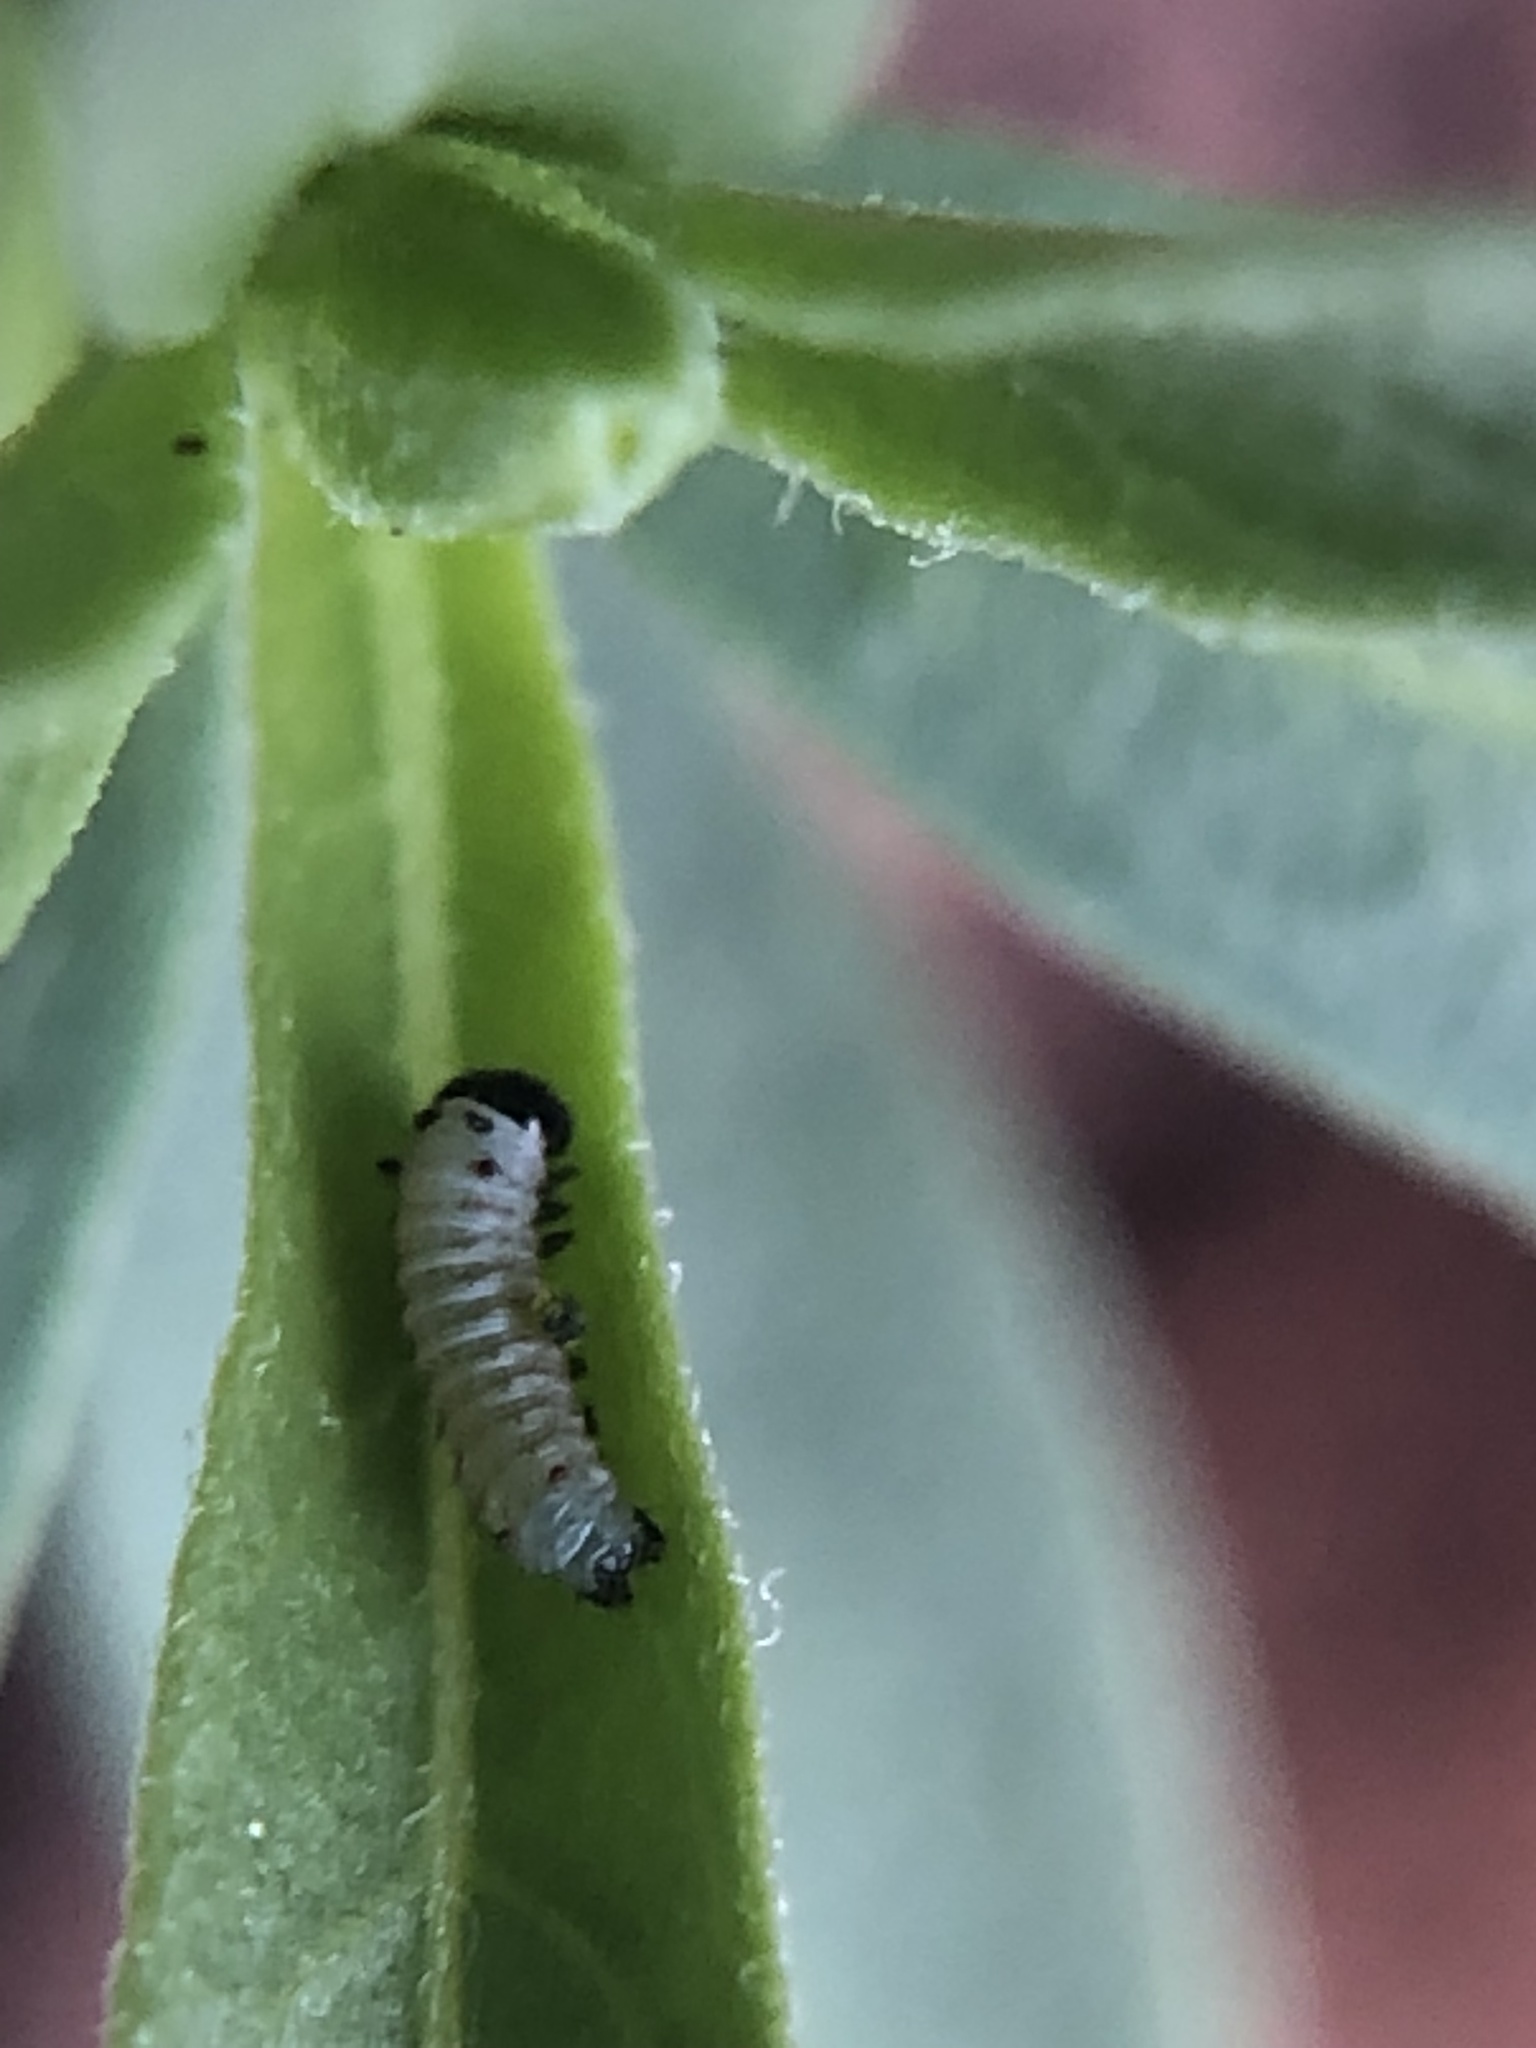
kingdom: Animalia
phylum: Arthropoda
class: Insecta
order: Lepidoptera
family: Nymphalidae
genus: Danaus
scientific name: Danaus plexippus
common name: Monarch
